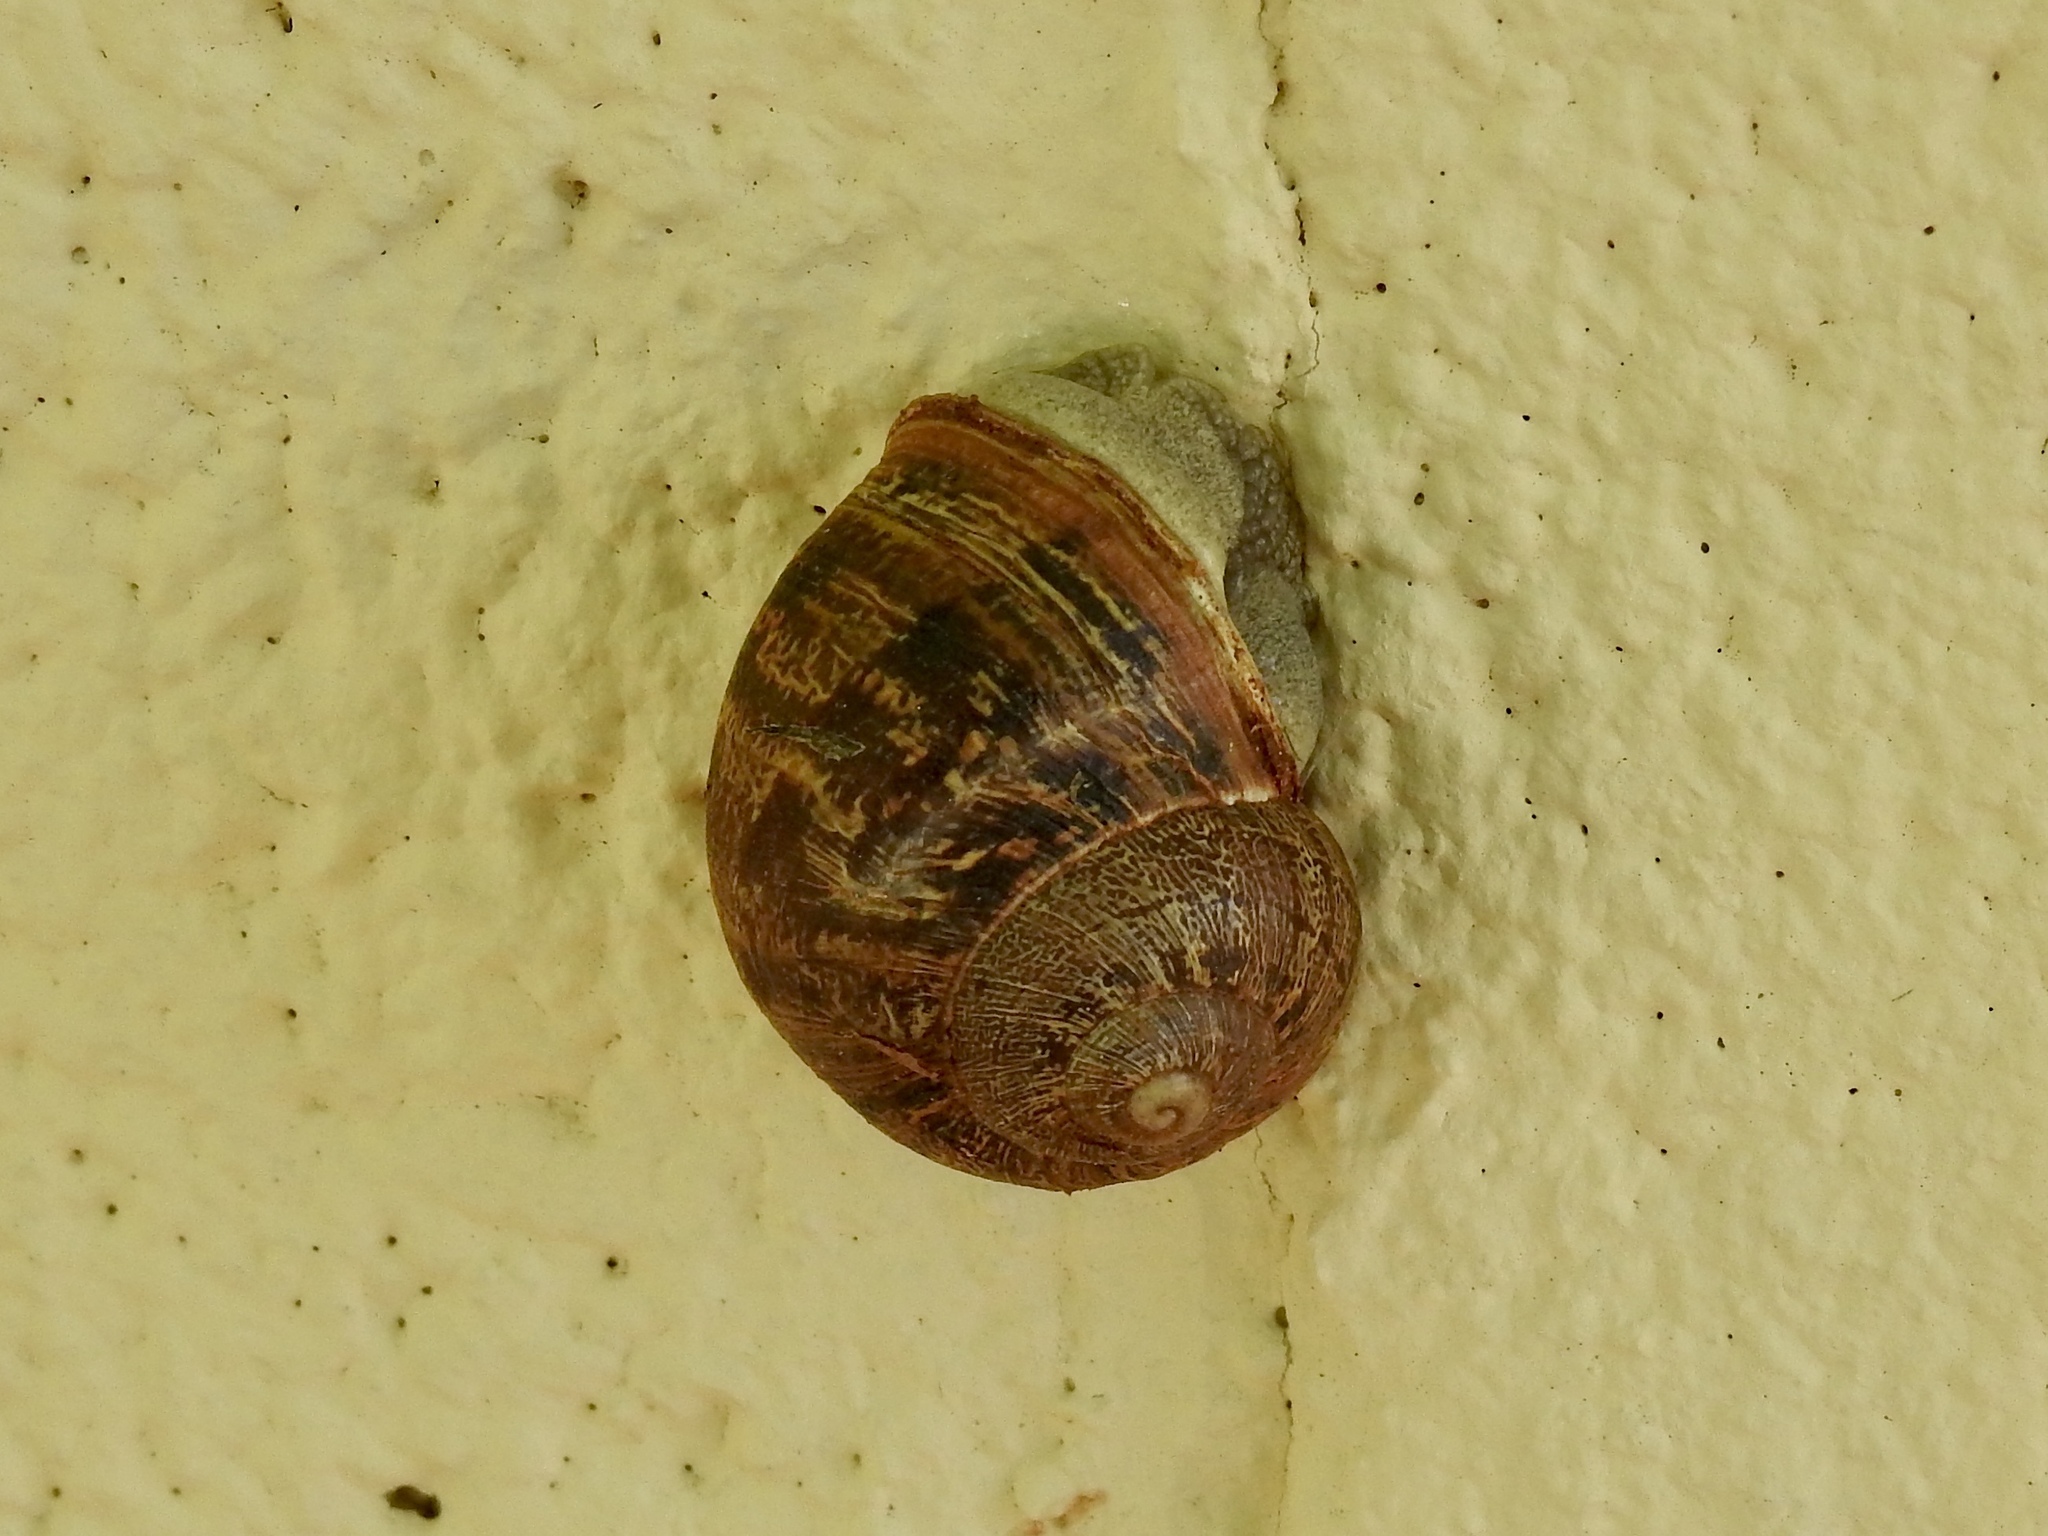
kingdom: Animalia
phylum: Mollusca
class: Gastropoda
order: Stylommatophora
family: Helicidae
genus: Cornu
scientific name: Cornu aspersum
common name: Brown garden snail
